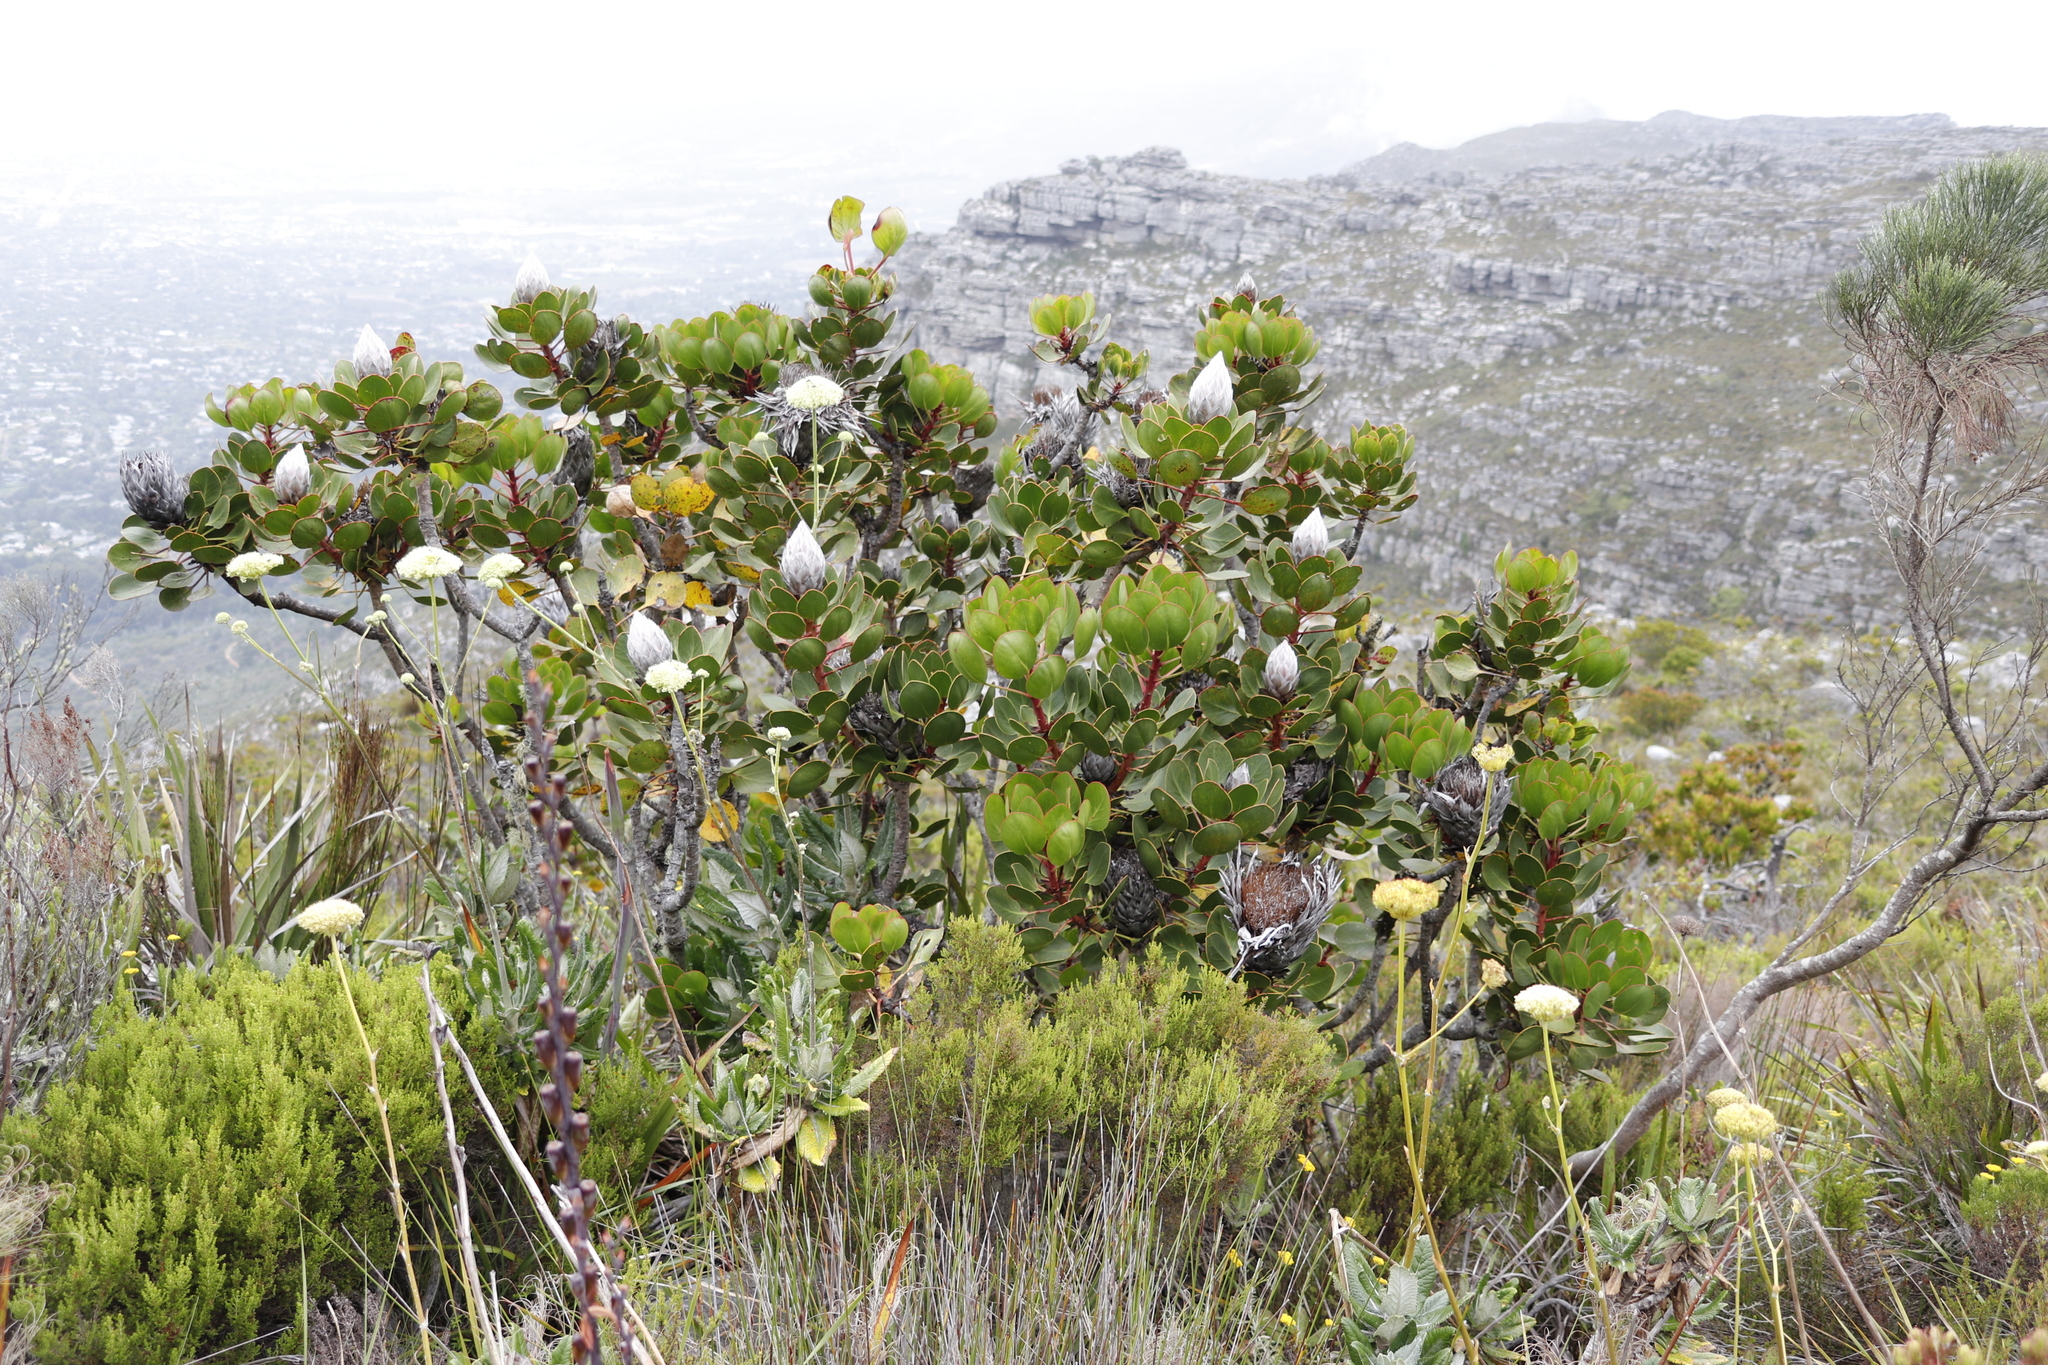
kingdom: Plantae
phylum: Tracheophyta
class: Magnoliopsida
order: Proteales
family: Proteaceae
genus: Protea
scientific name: Protea cynaroides
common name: King protea
